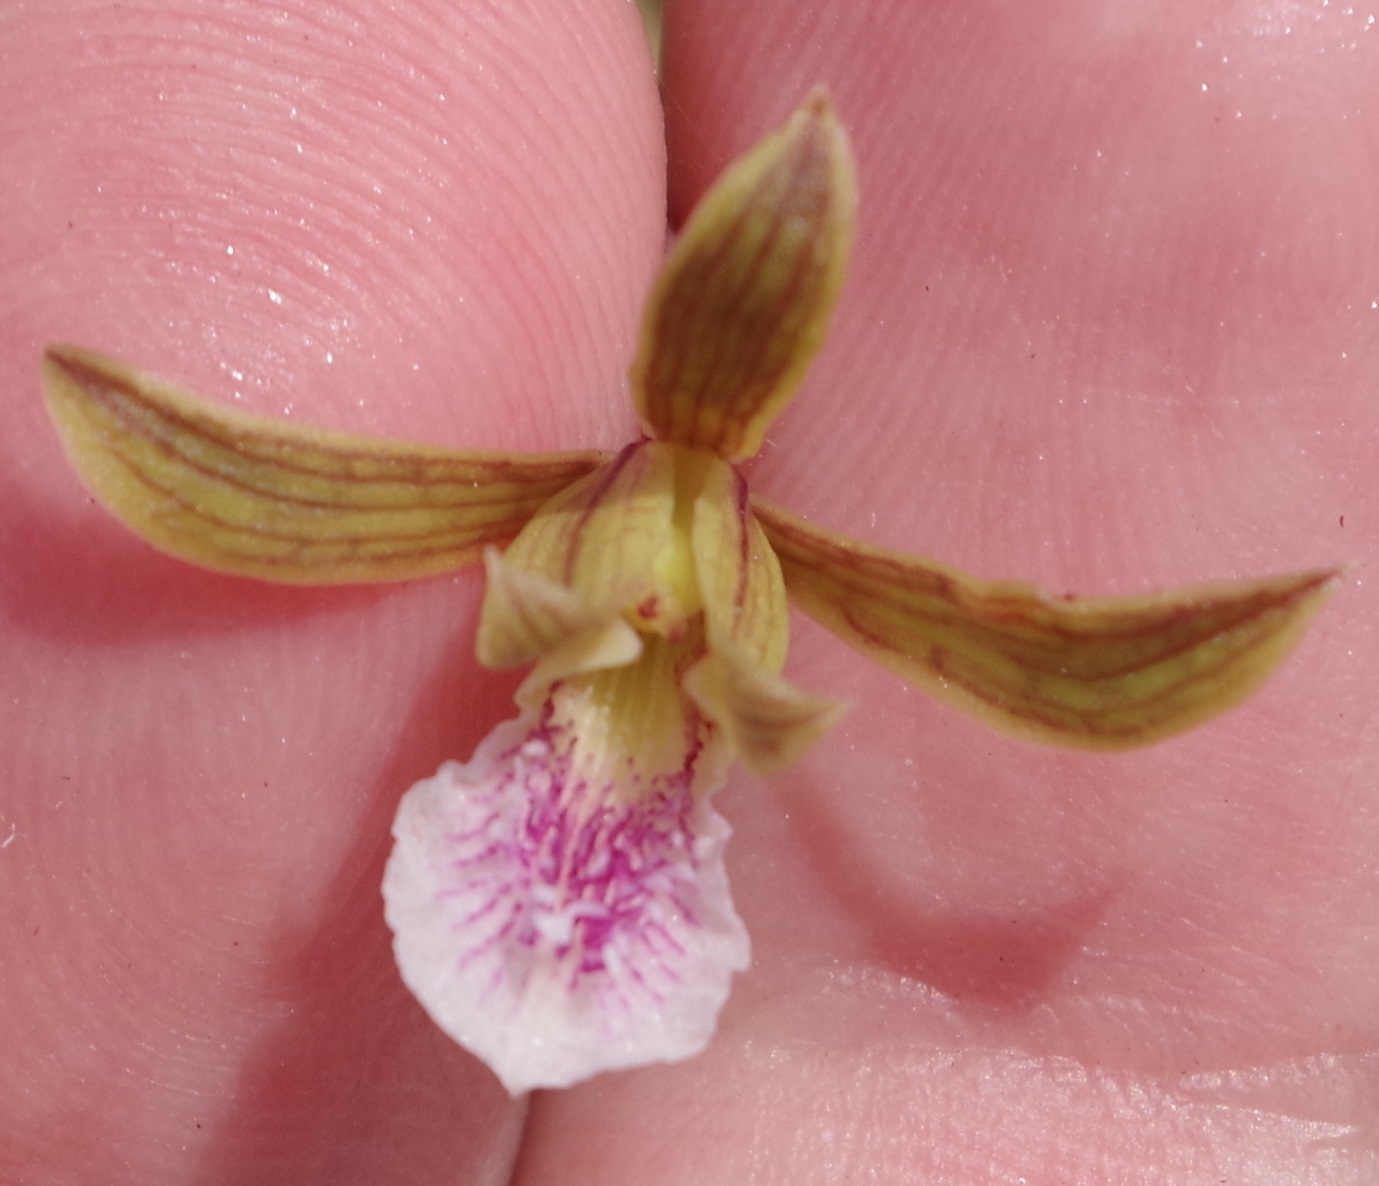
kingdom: Plantae
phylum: Tracheophyta
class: Liliopsida
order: Asparagales
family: Orchidaceae
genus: Eulophia
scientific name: Eulophia graminea
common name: Orchid
